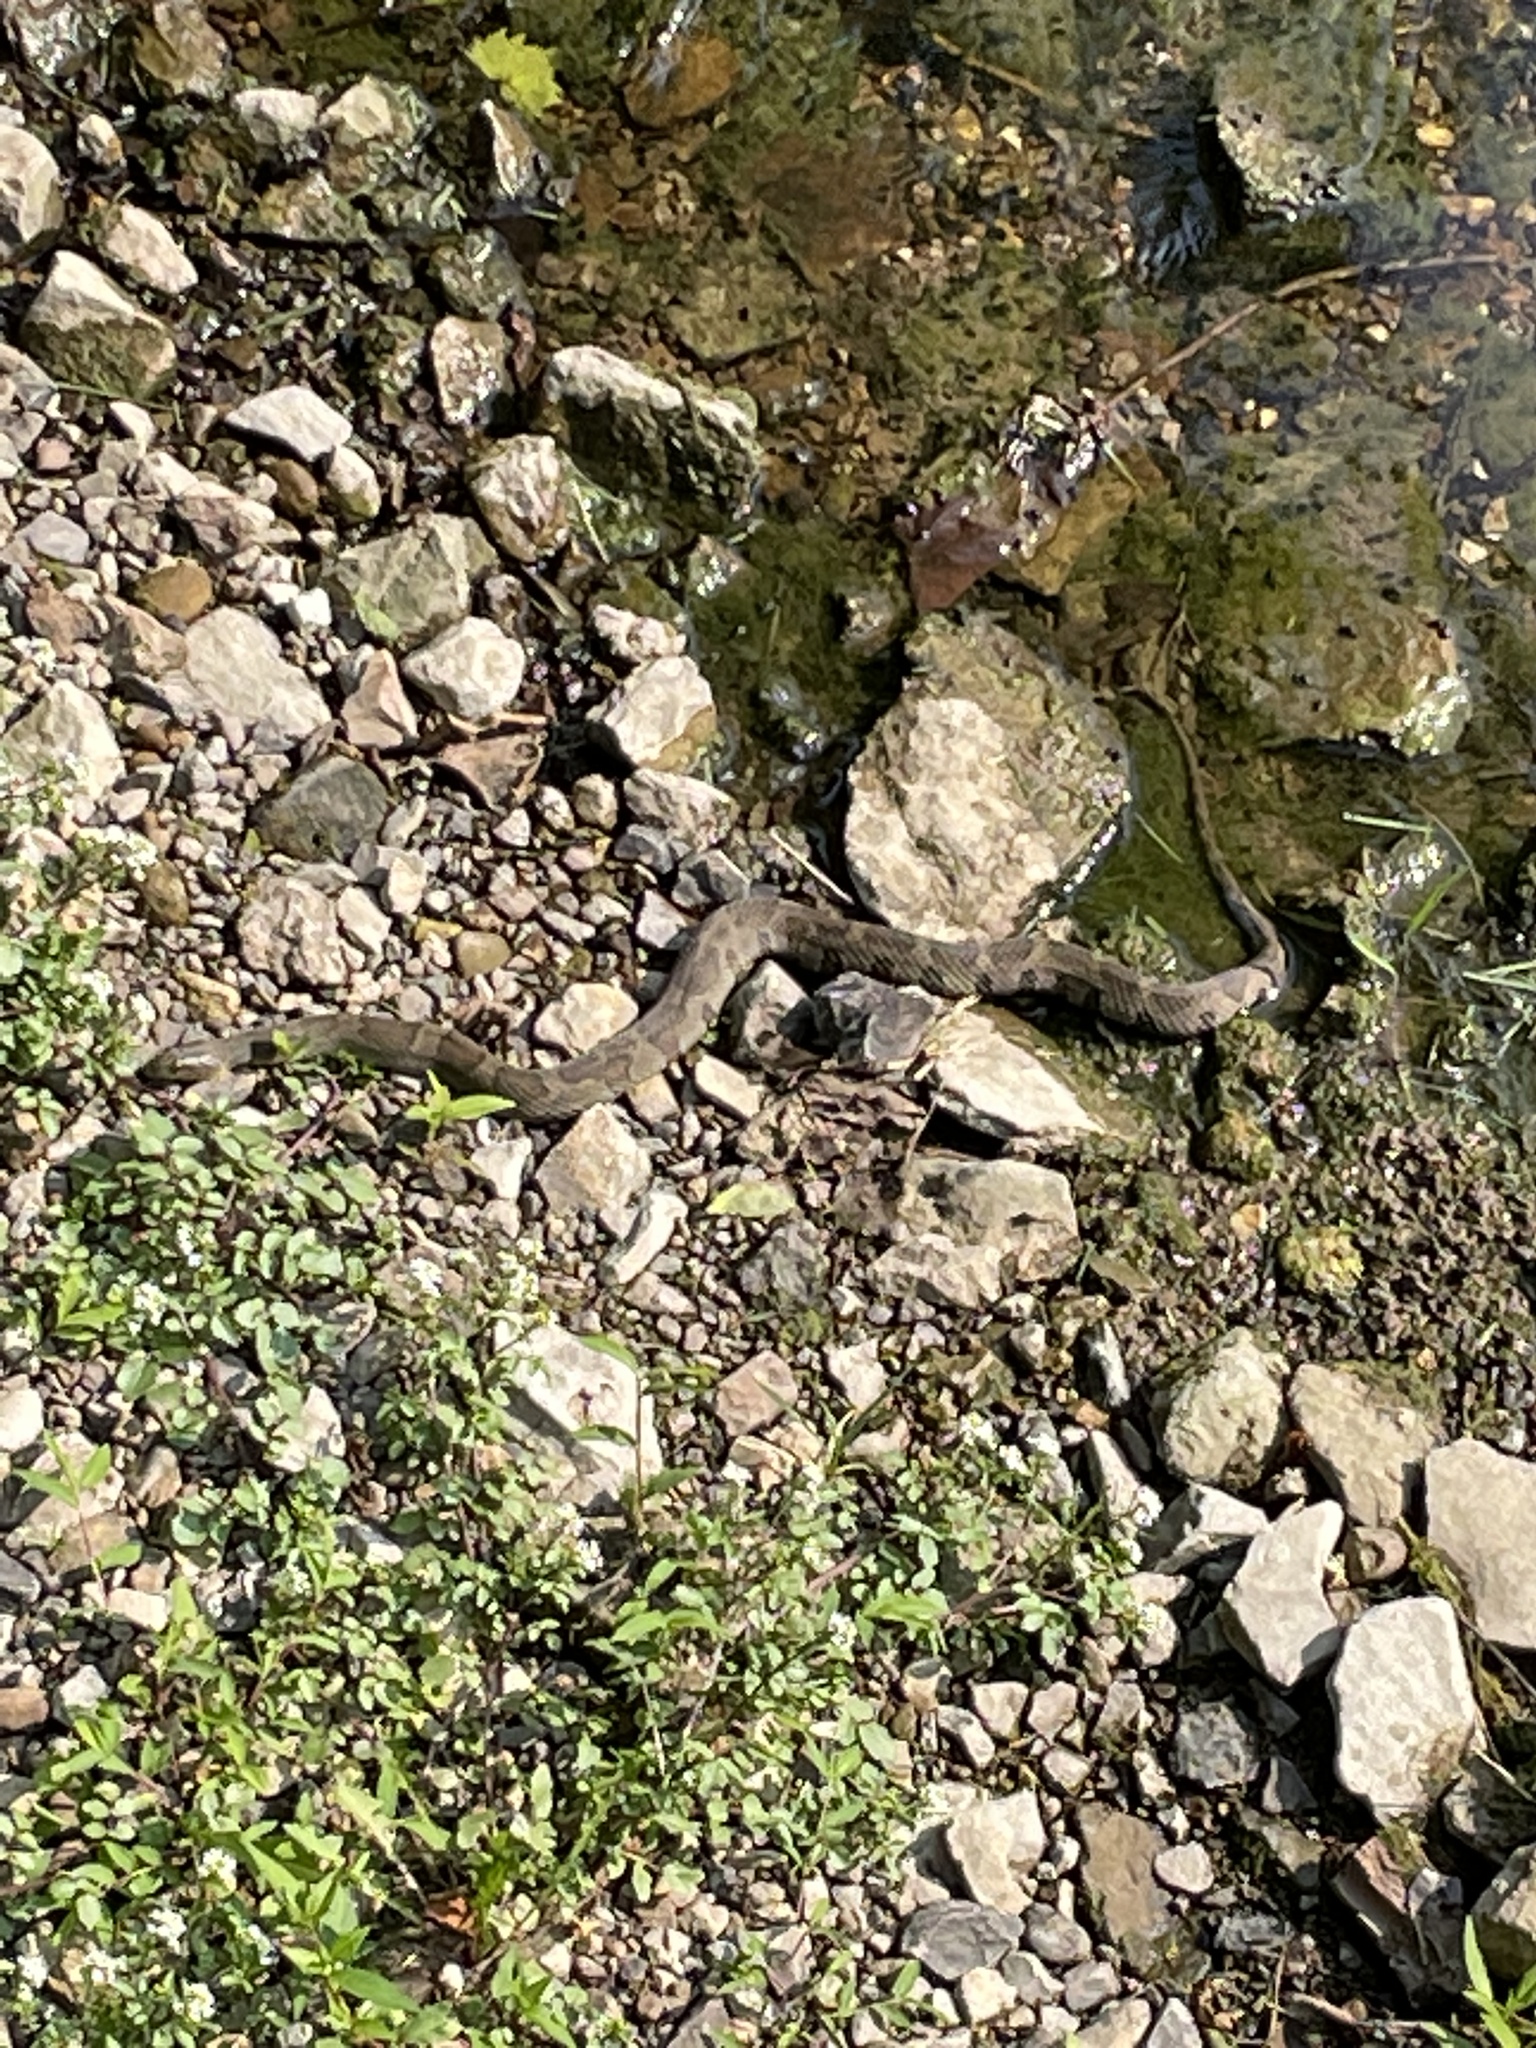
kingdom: Animalia
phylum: Chordata
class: Squamata
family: Colubridae
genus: Nerodia
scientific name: Nerodia sipedon
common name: Northern water snake
